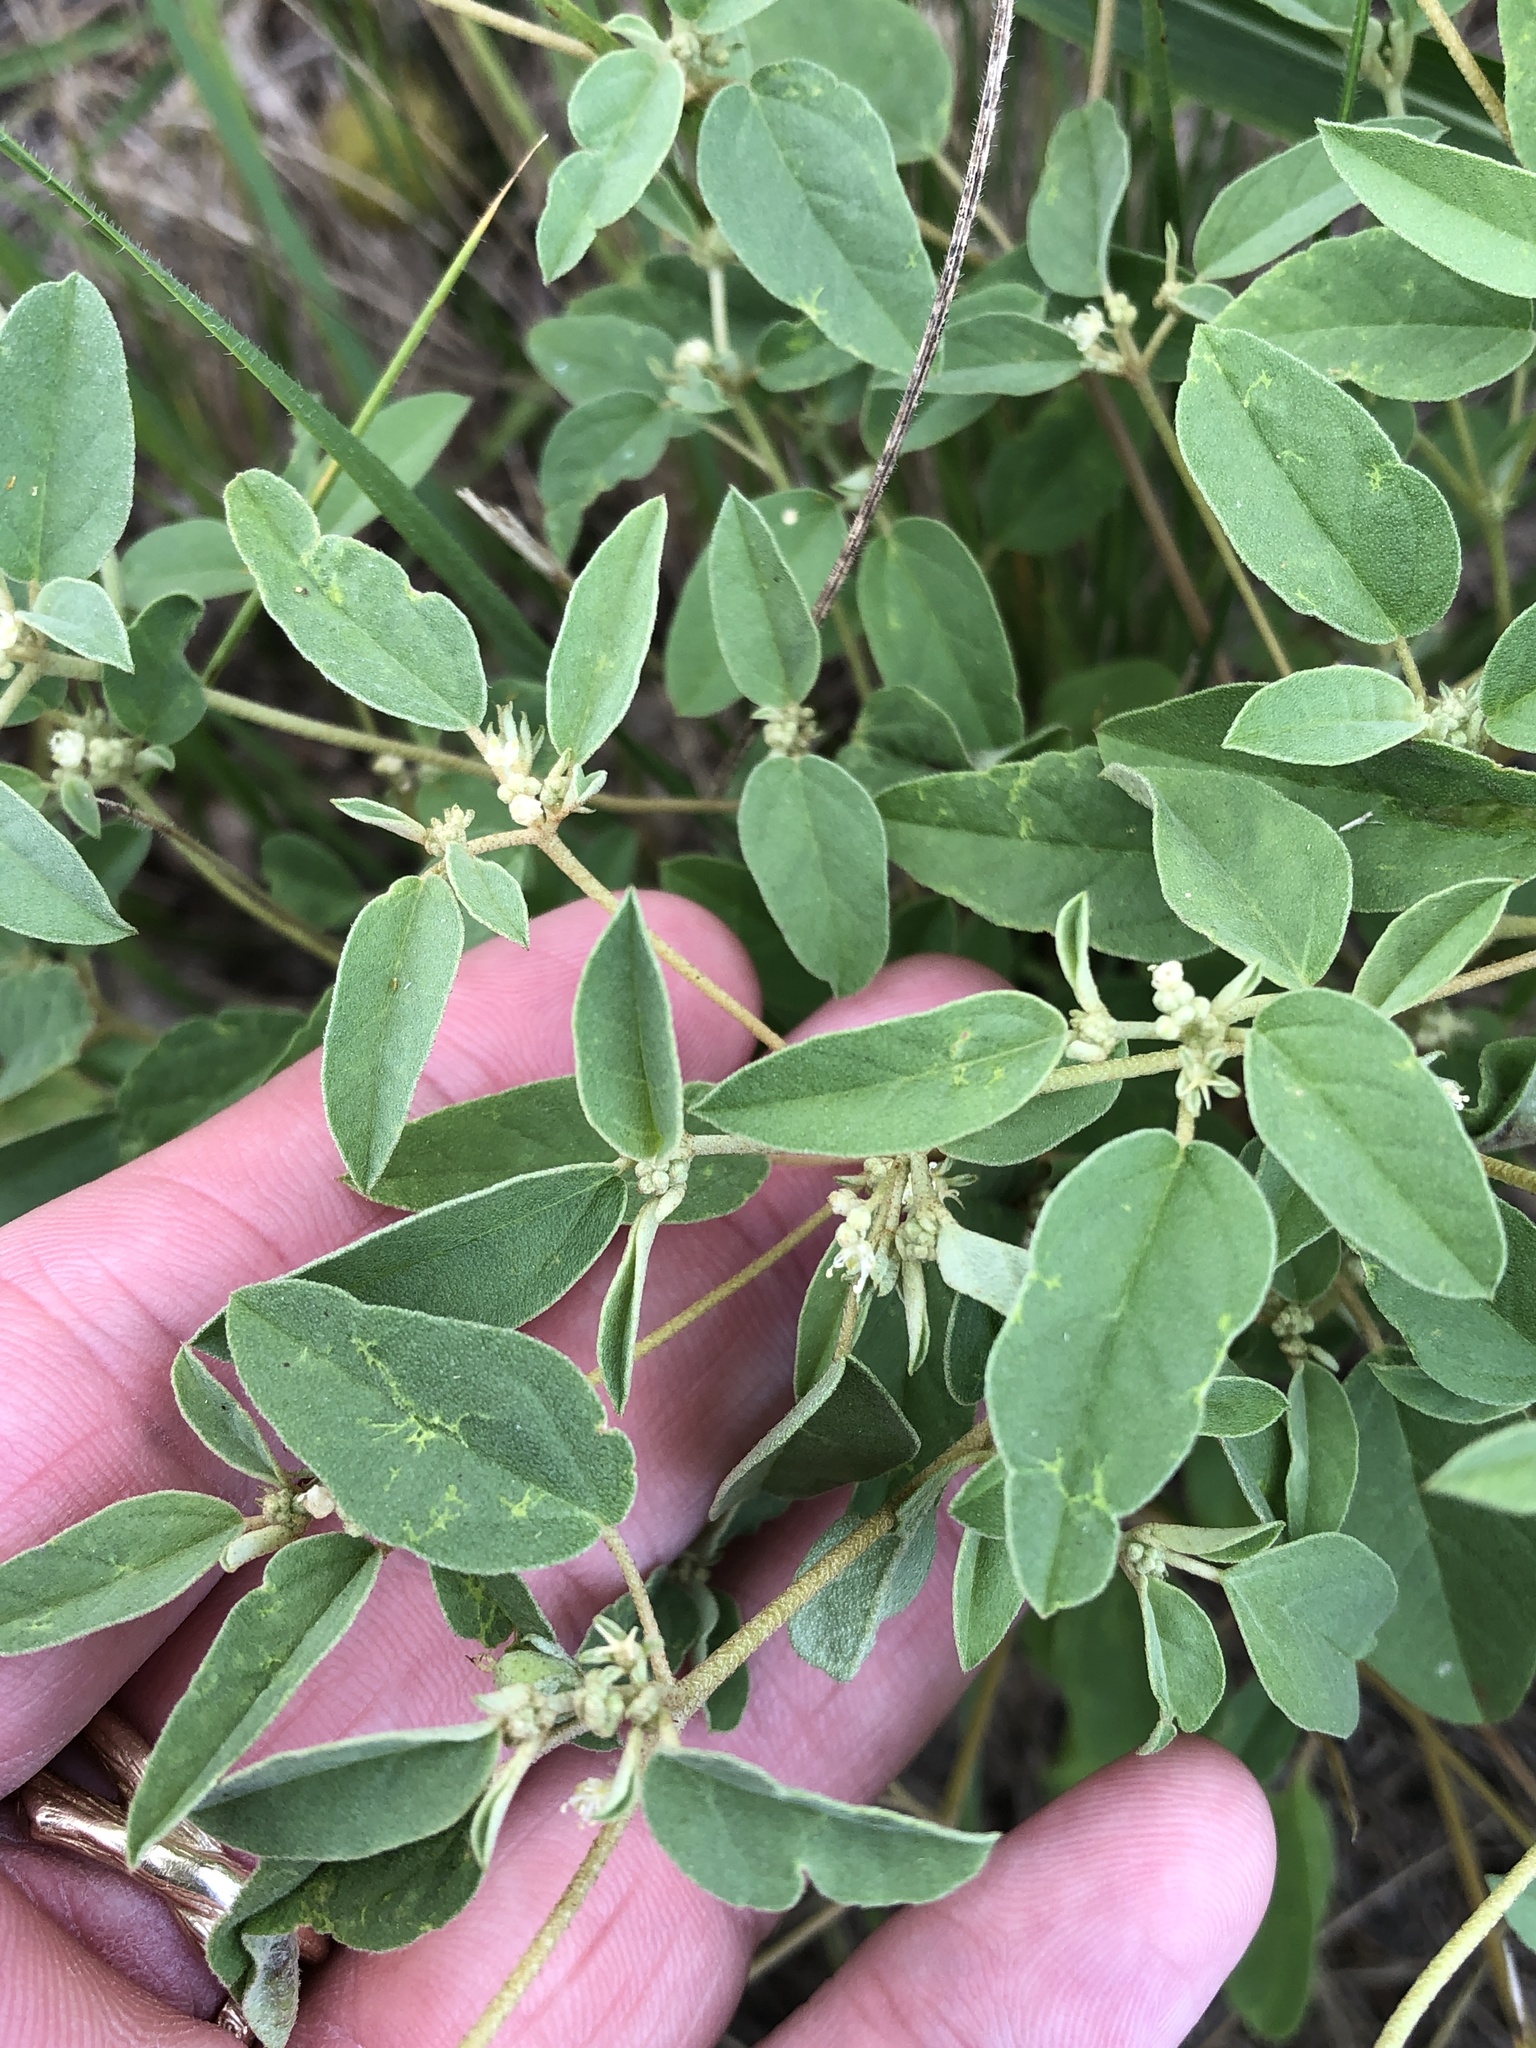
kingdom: Plantae
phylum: Tracheophyta
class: Magnoliopsida
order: Malpighiales
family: Euphorbiaceae
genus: Croton
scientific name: Croton monanthogynus
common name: One-seed croton
